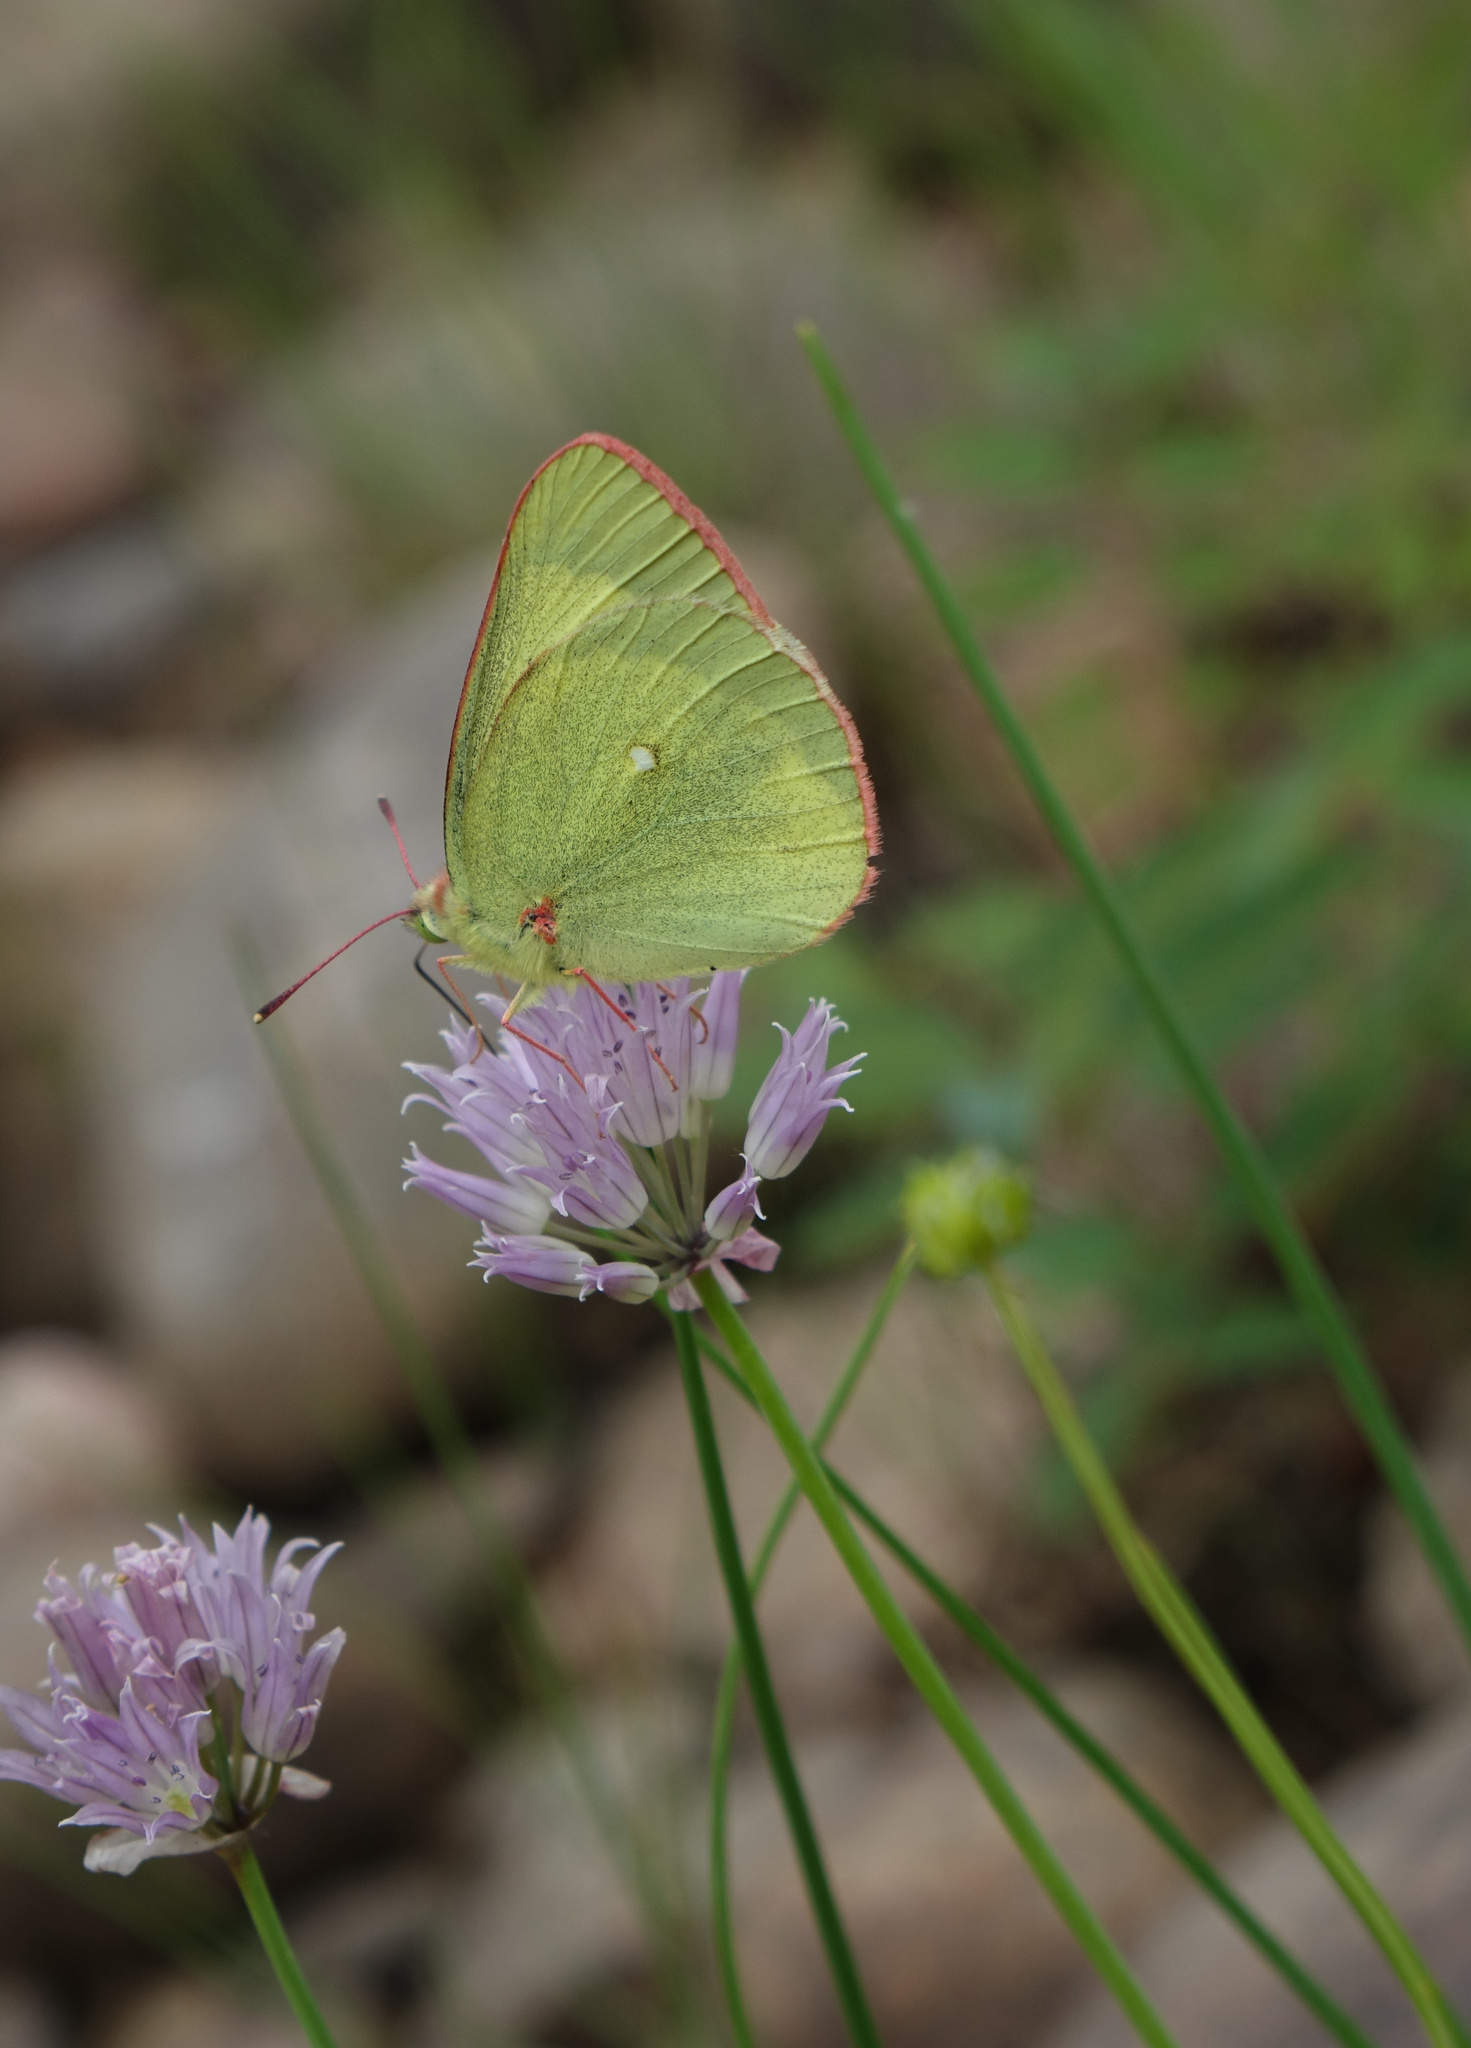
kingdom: Animalia
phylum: Arthropoda
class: Insecta
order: Lepidoptera
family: Pieridae
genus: Colias
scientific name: Colias palaeno
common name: Moorland clouded yellow
